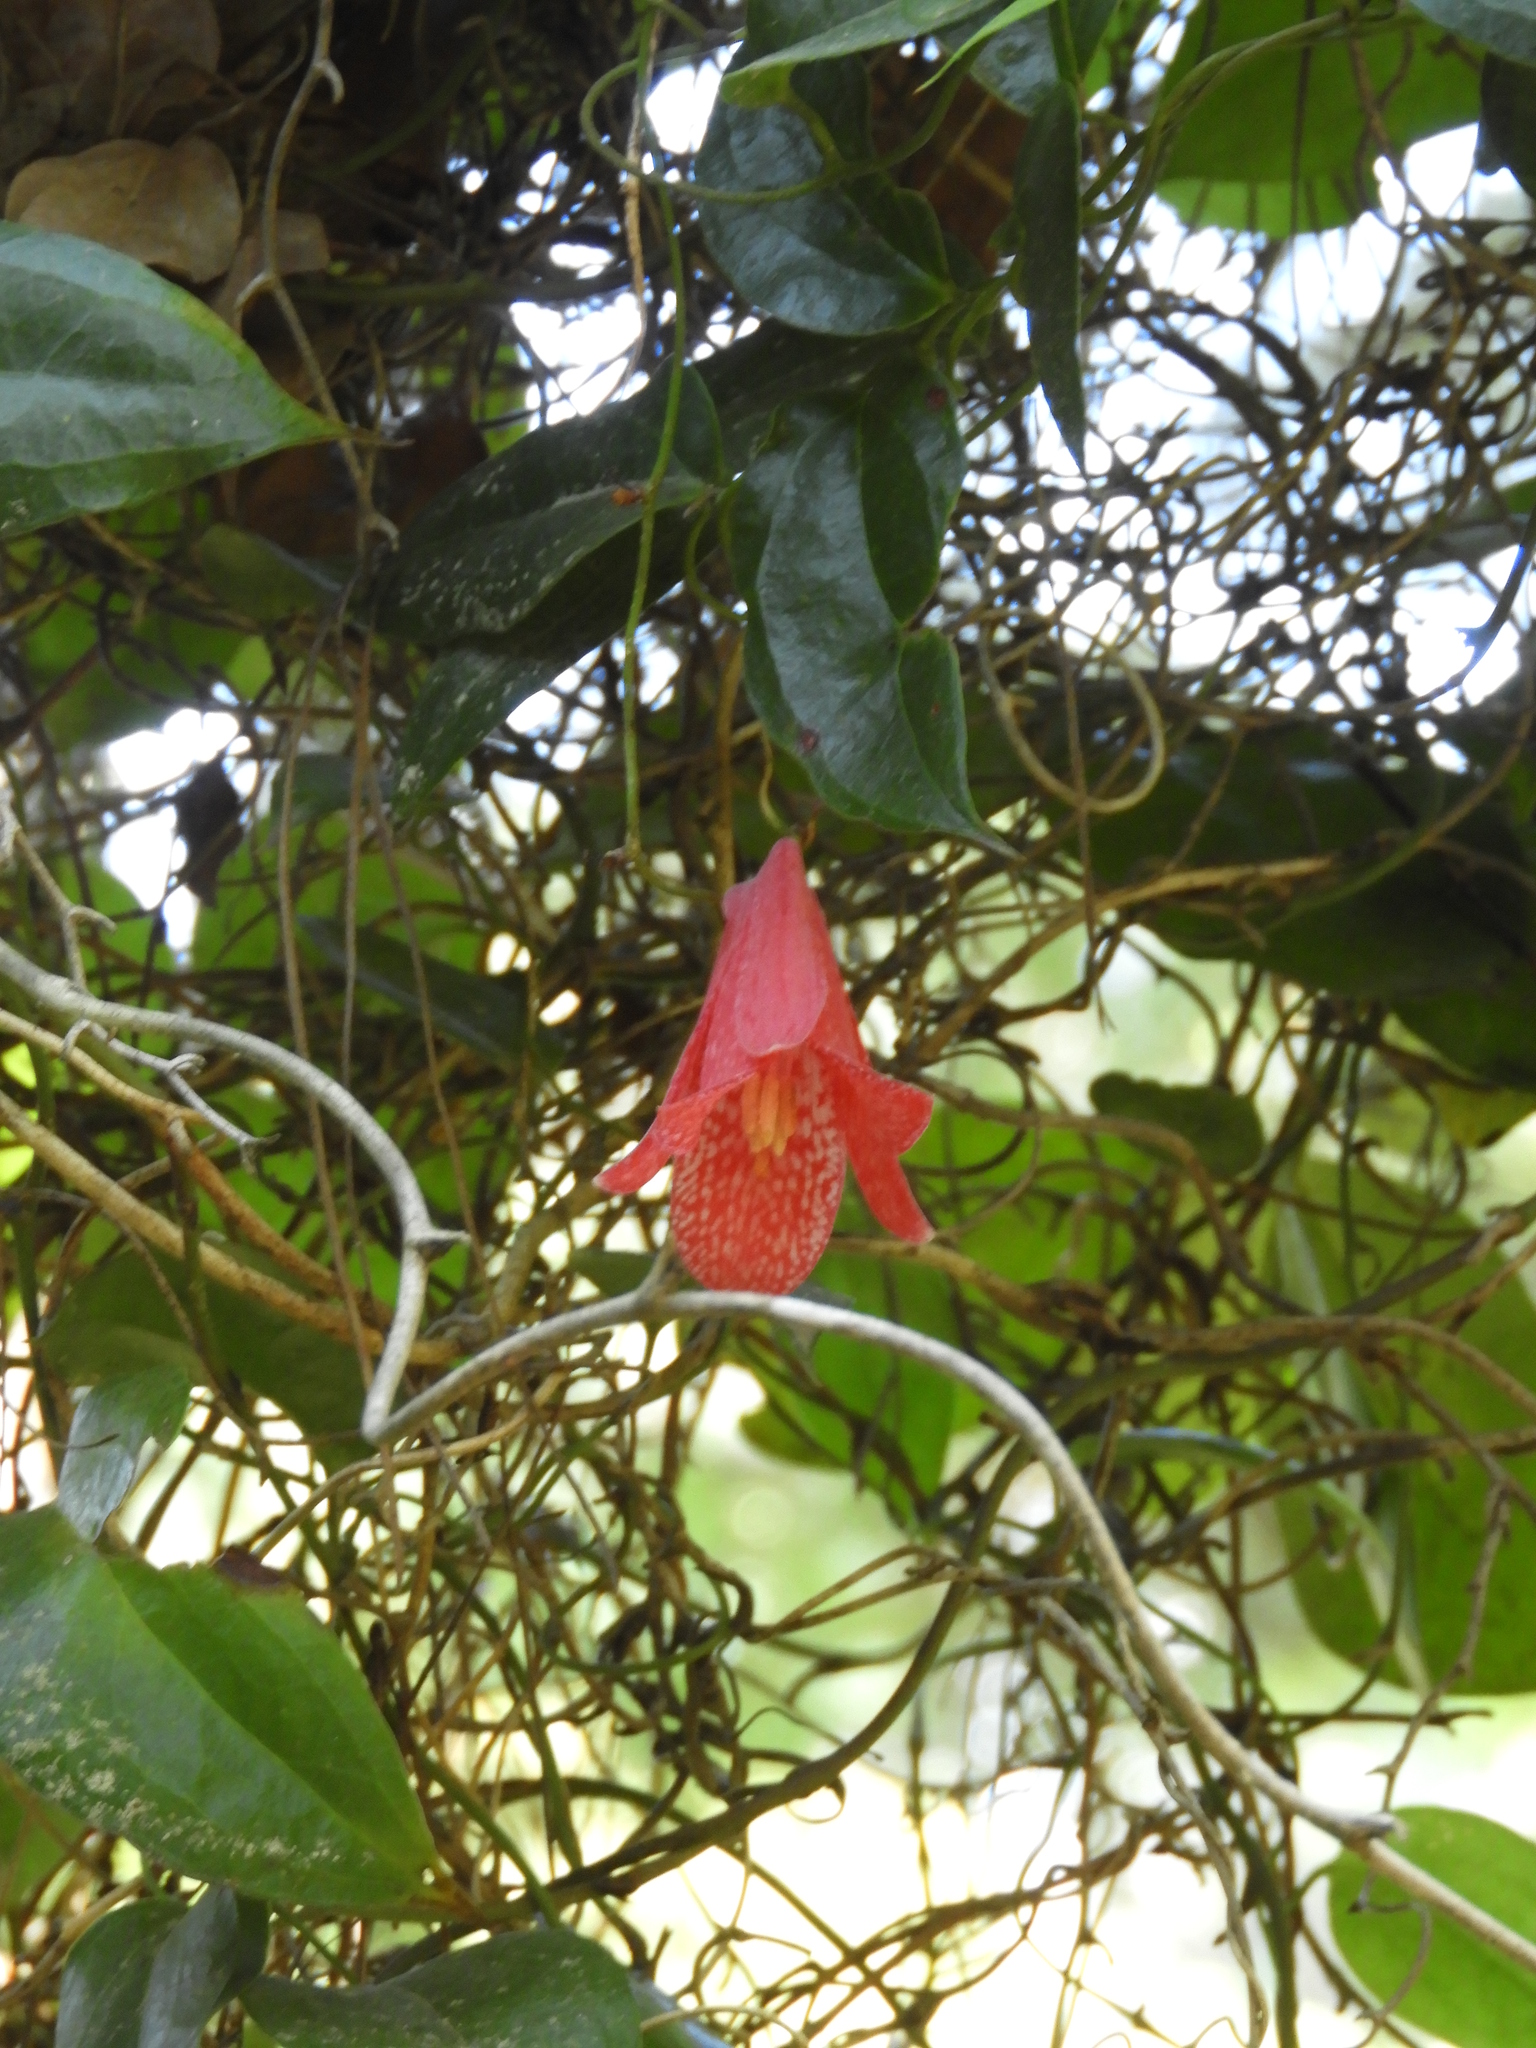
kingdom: Plantae
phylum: Tracheophyta
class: Liliopsida
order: Liliales
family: Philesiaceae
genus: Lapageria
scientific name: Lapageria rosea
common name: Chilean-bellflower
